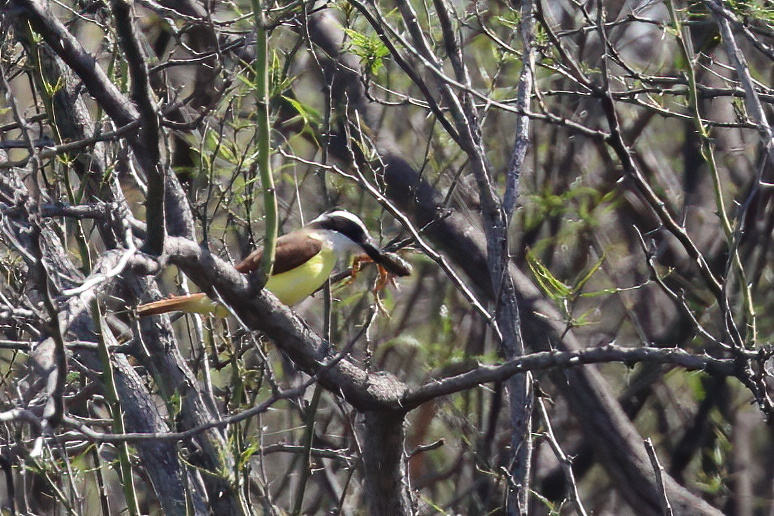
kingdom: Animalia
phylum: Chordata
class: Aves
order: Passeriformes
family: Tyrannidae
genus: Pitangus
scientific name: Pitangus sulphuratus
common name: Great kiskadee
